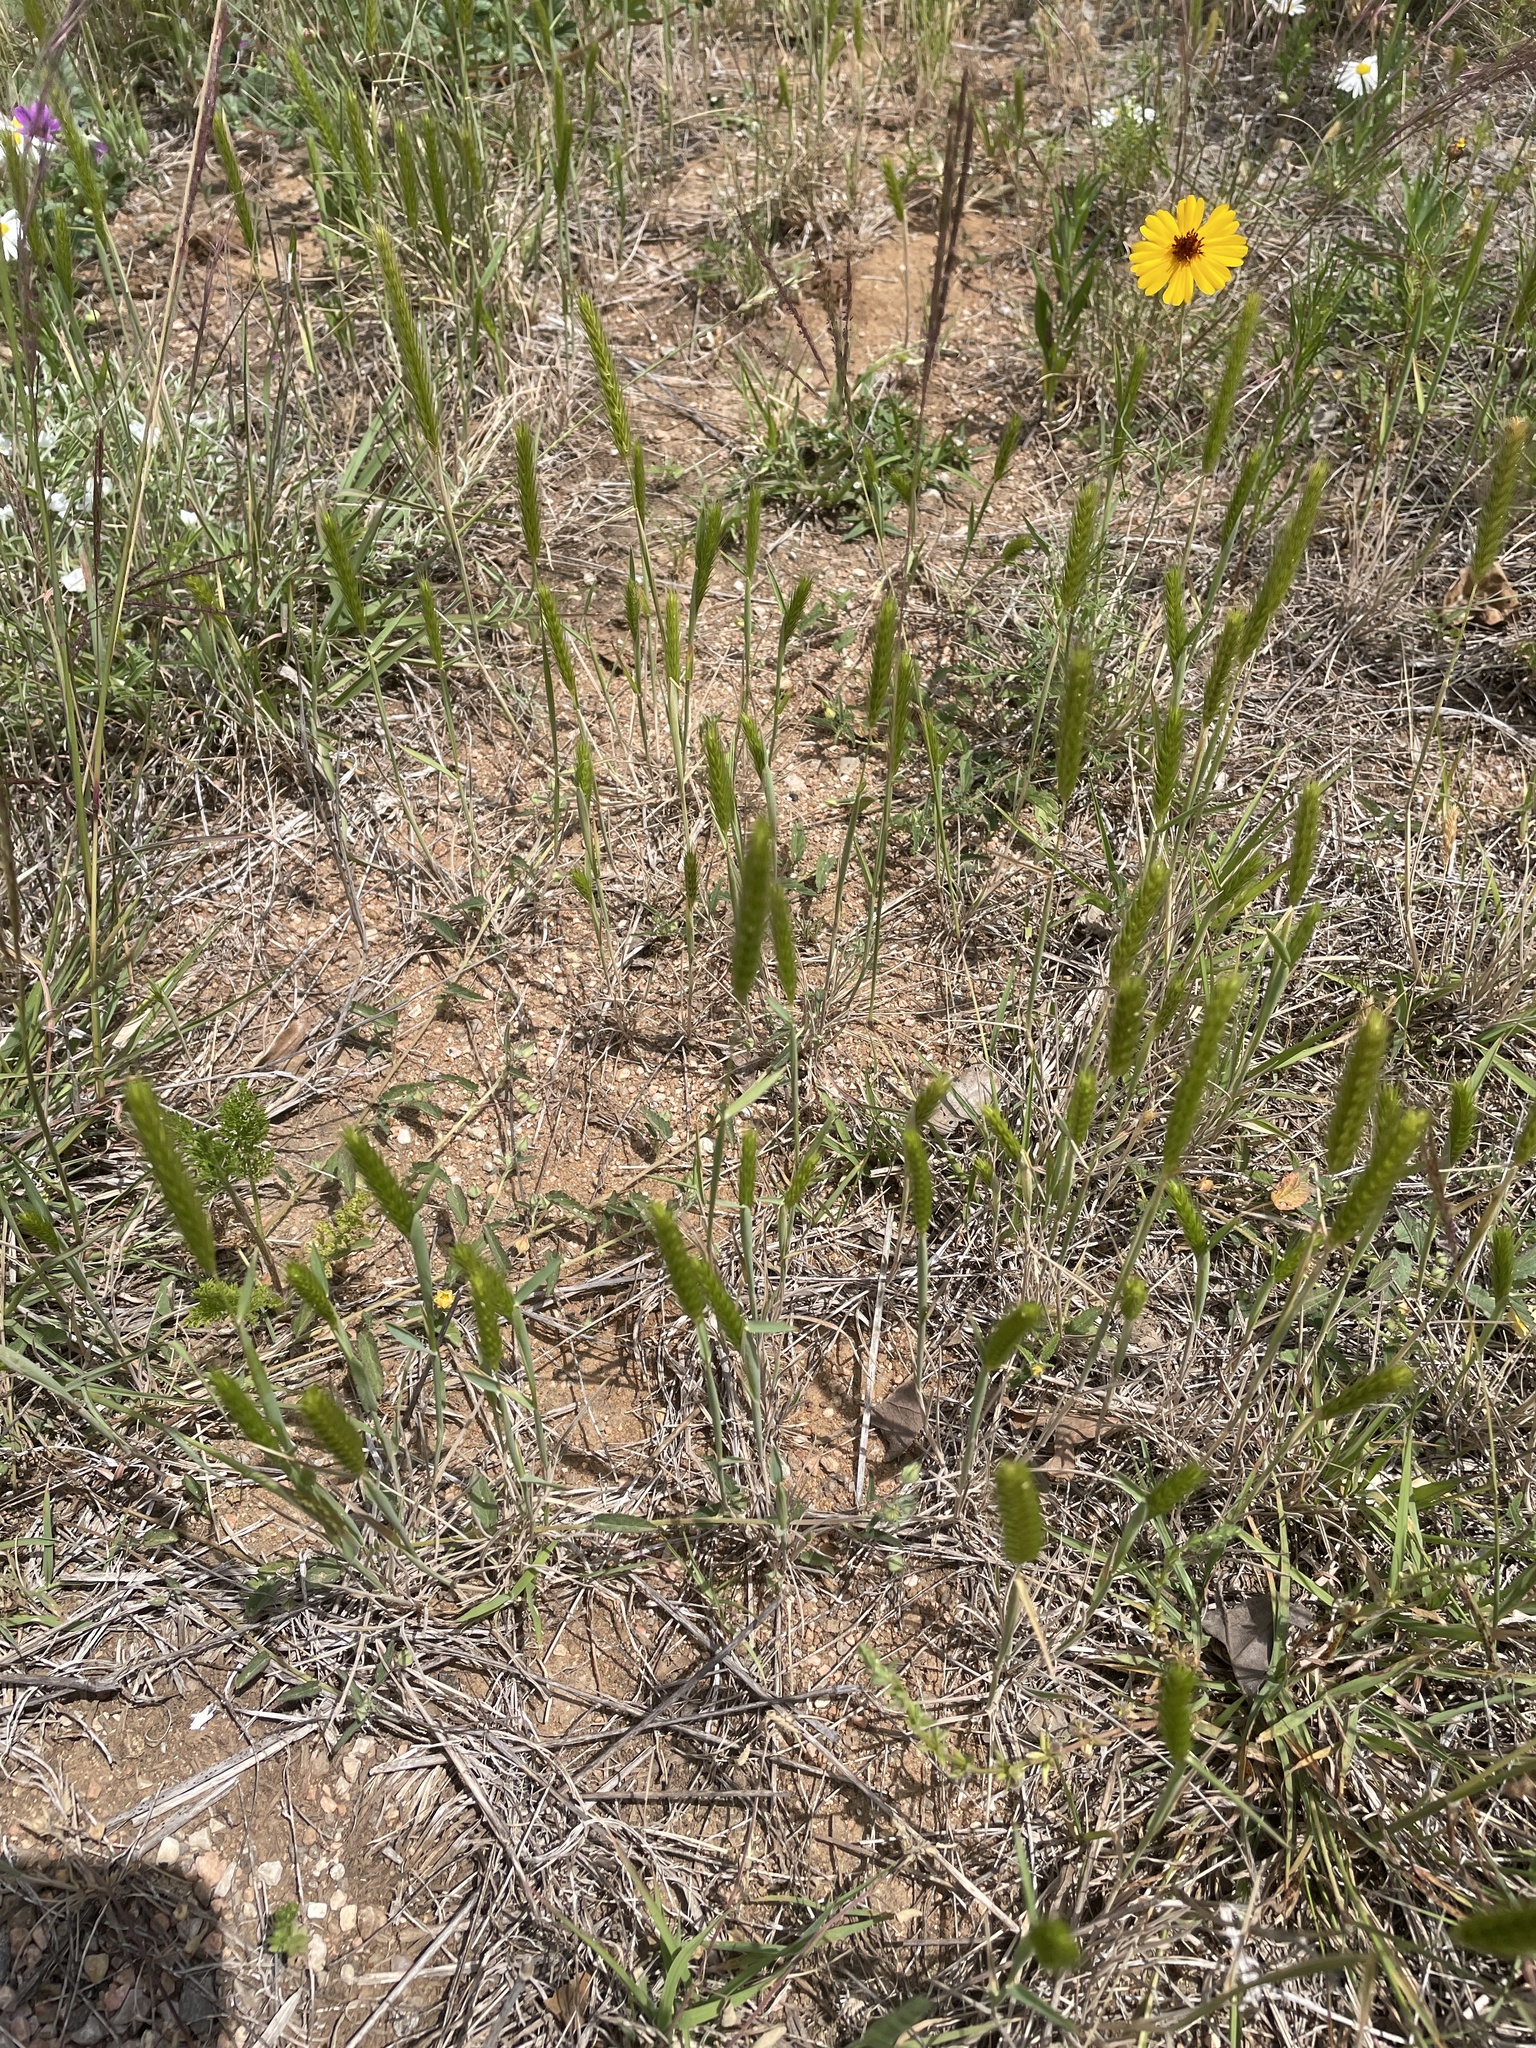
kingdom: Plantae
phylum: Tracheophyta
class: Liliopsida
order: Poales
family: Poaceae
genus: Hordeum
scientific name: Hordeum pusillum
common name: Little barley
